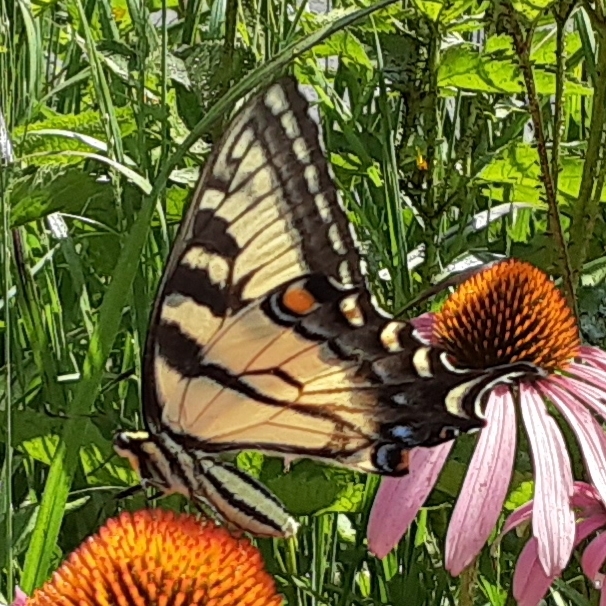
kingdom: Animalia
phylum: Arthropoda
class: Insecta
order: Lepidoptera
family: Papilionidae
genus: Papilio
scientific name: Papilio glaucus
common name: Tiger swallowtail
